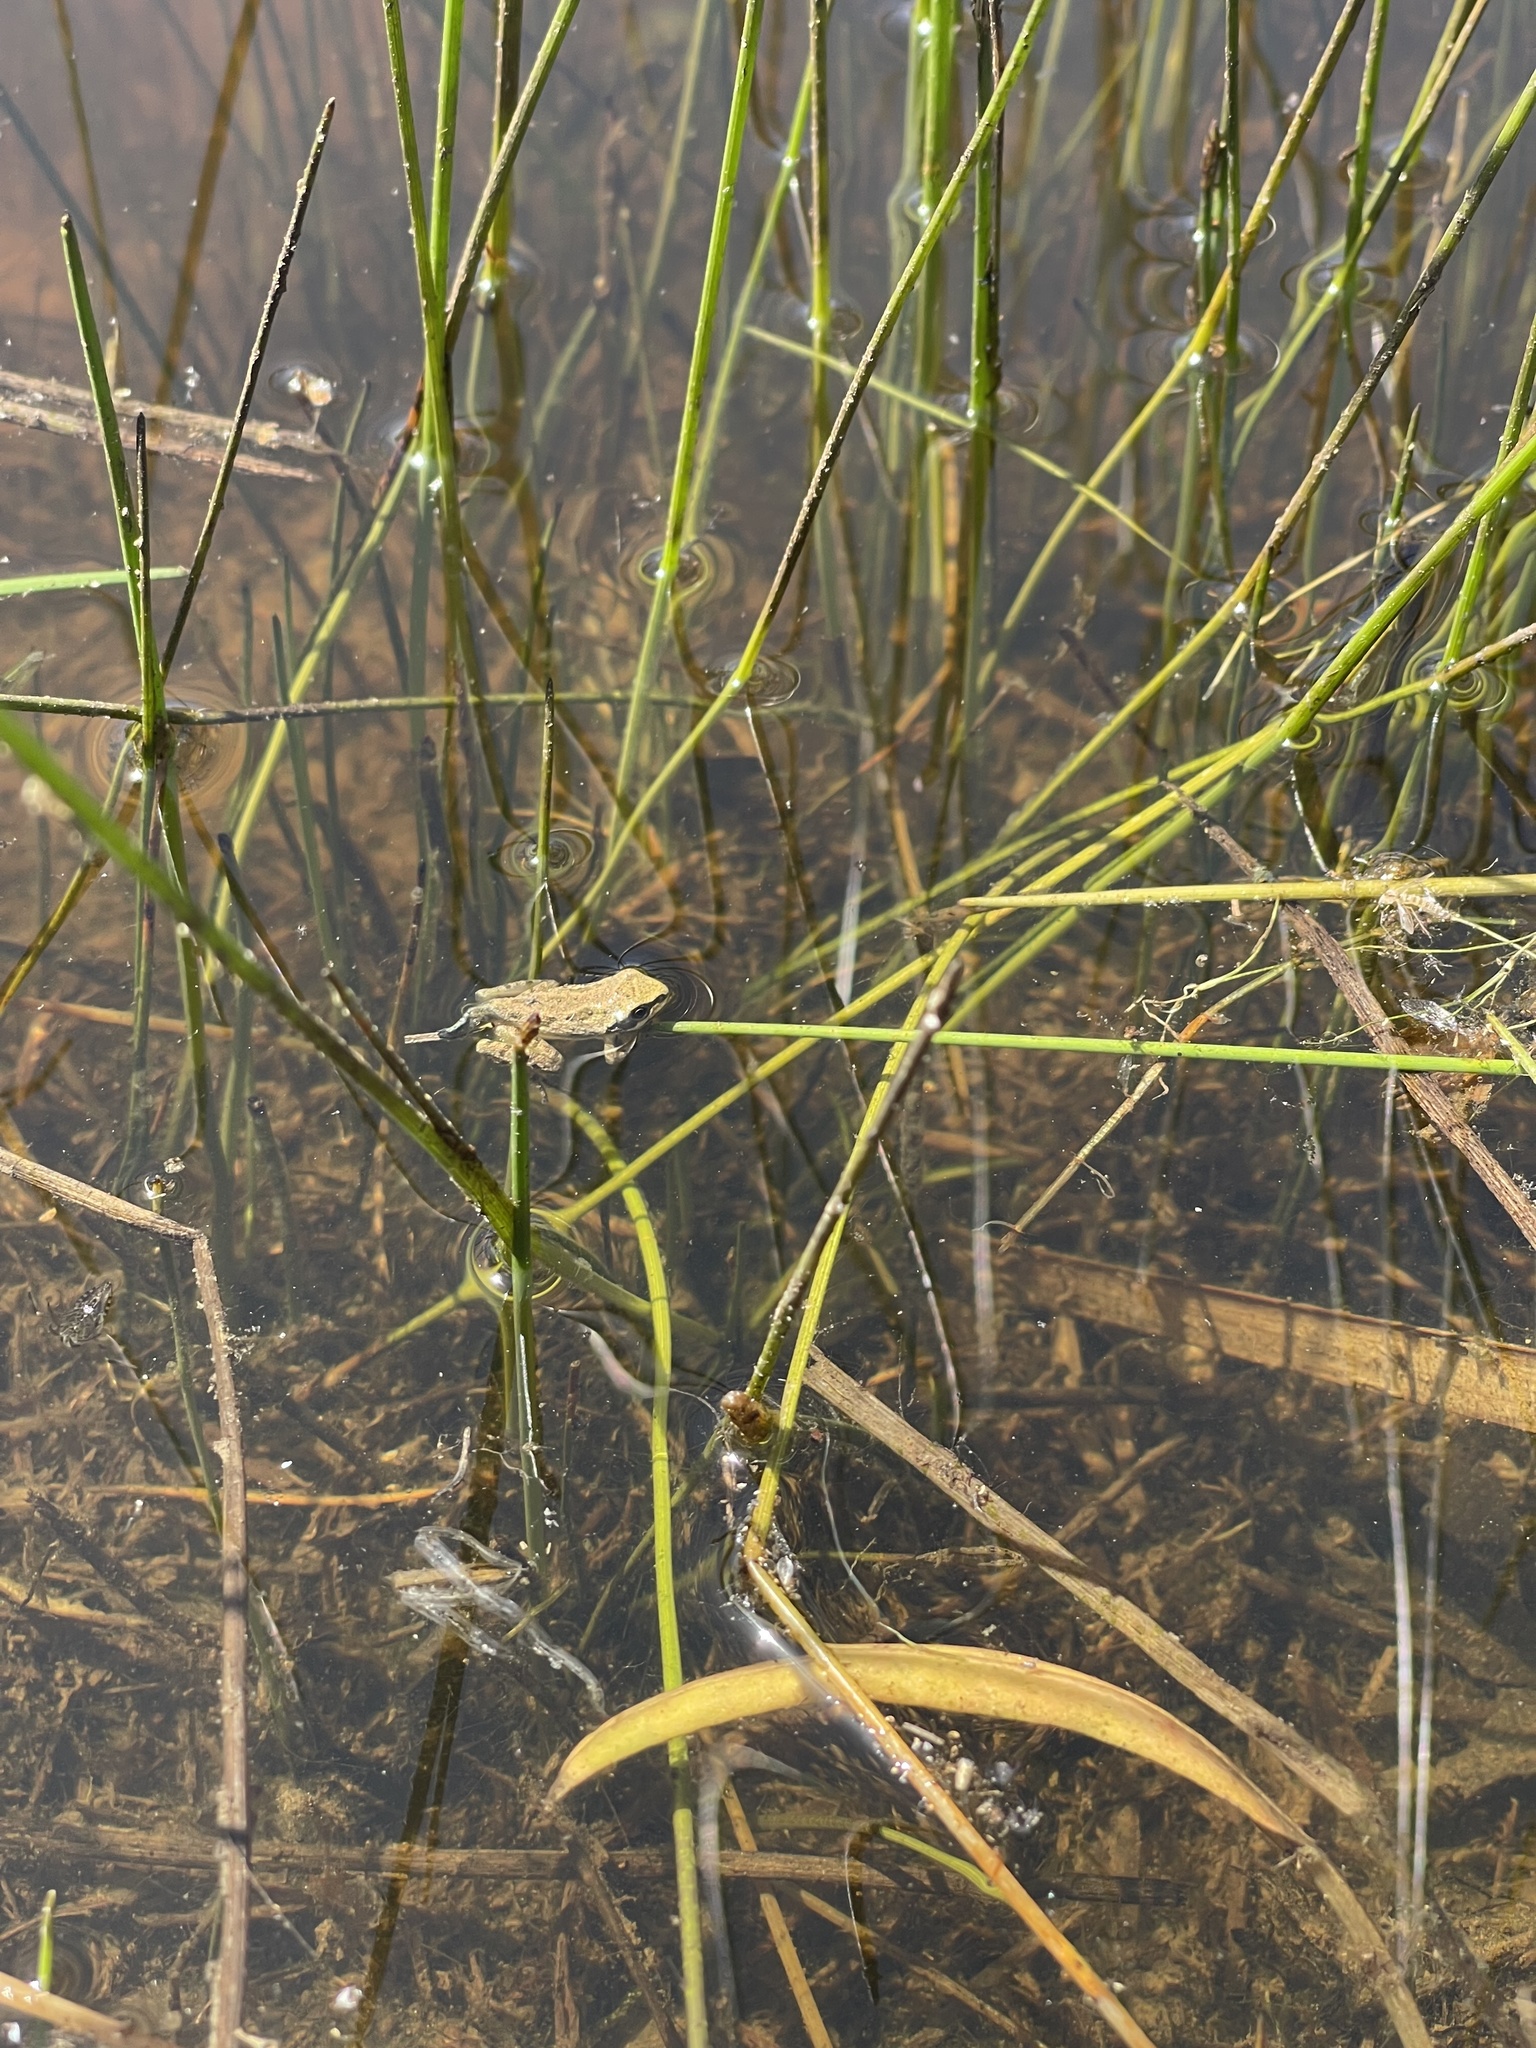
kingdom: Animalia
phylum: Chordata
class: Amphibia
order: Anura
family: Hylidae
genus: Pseudacris
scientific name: Pseudacris regilla
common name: Pacific chorus frog
